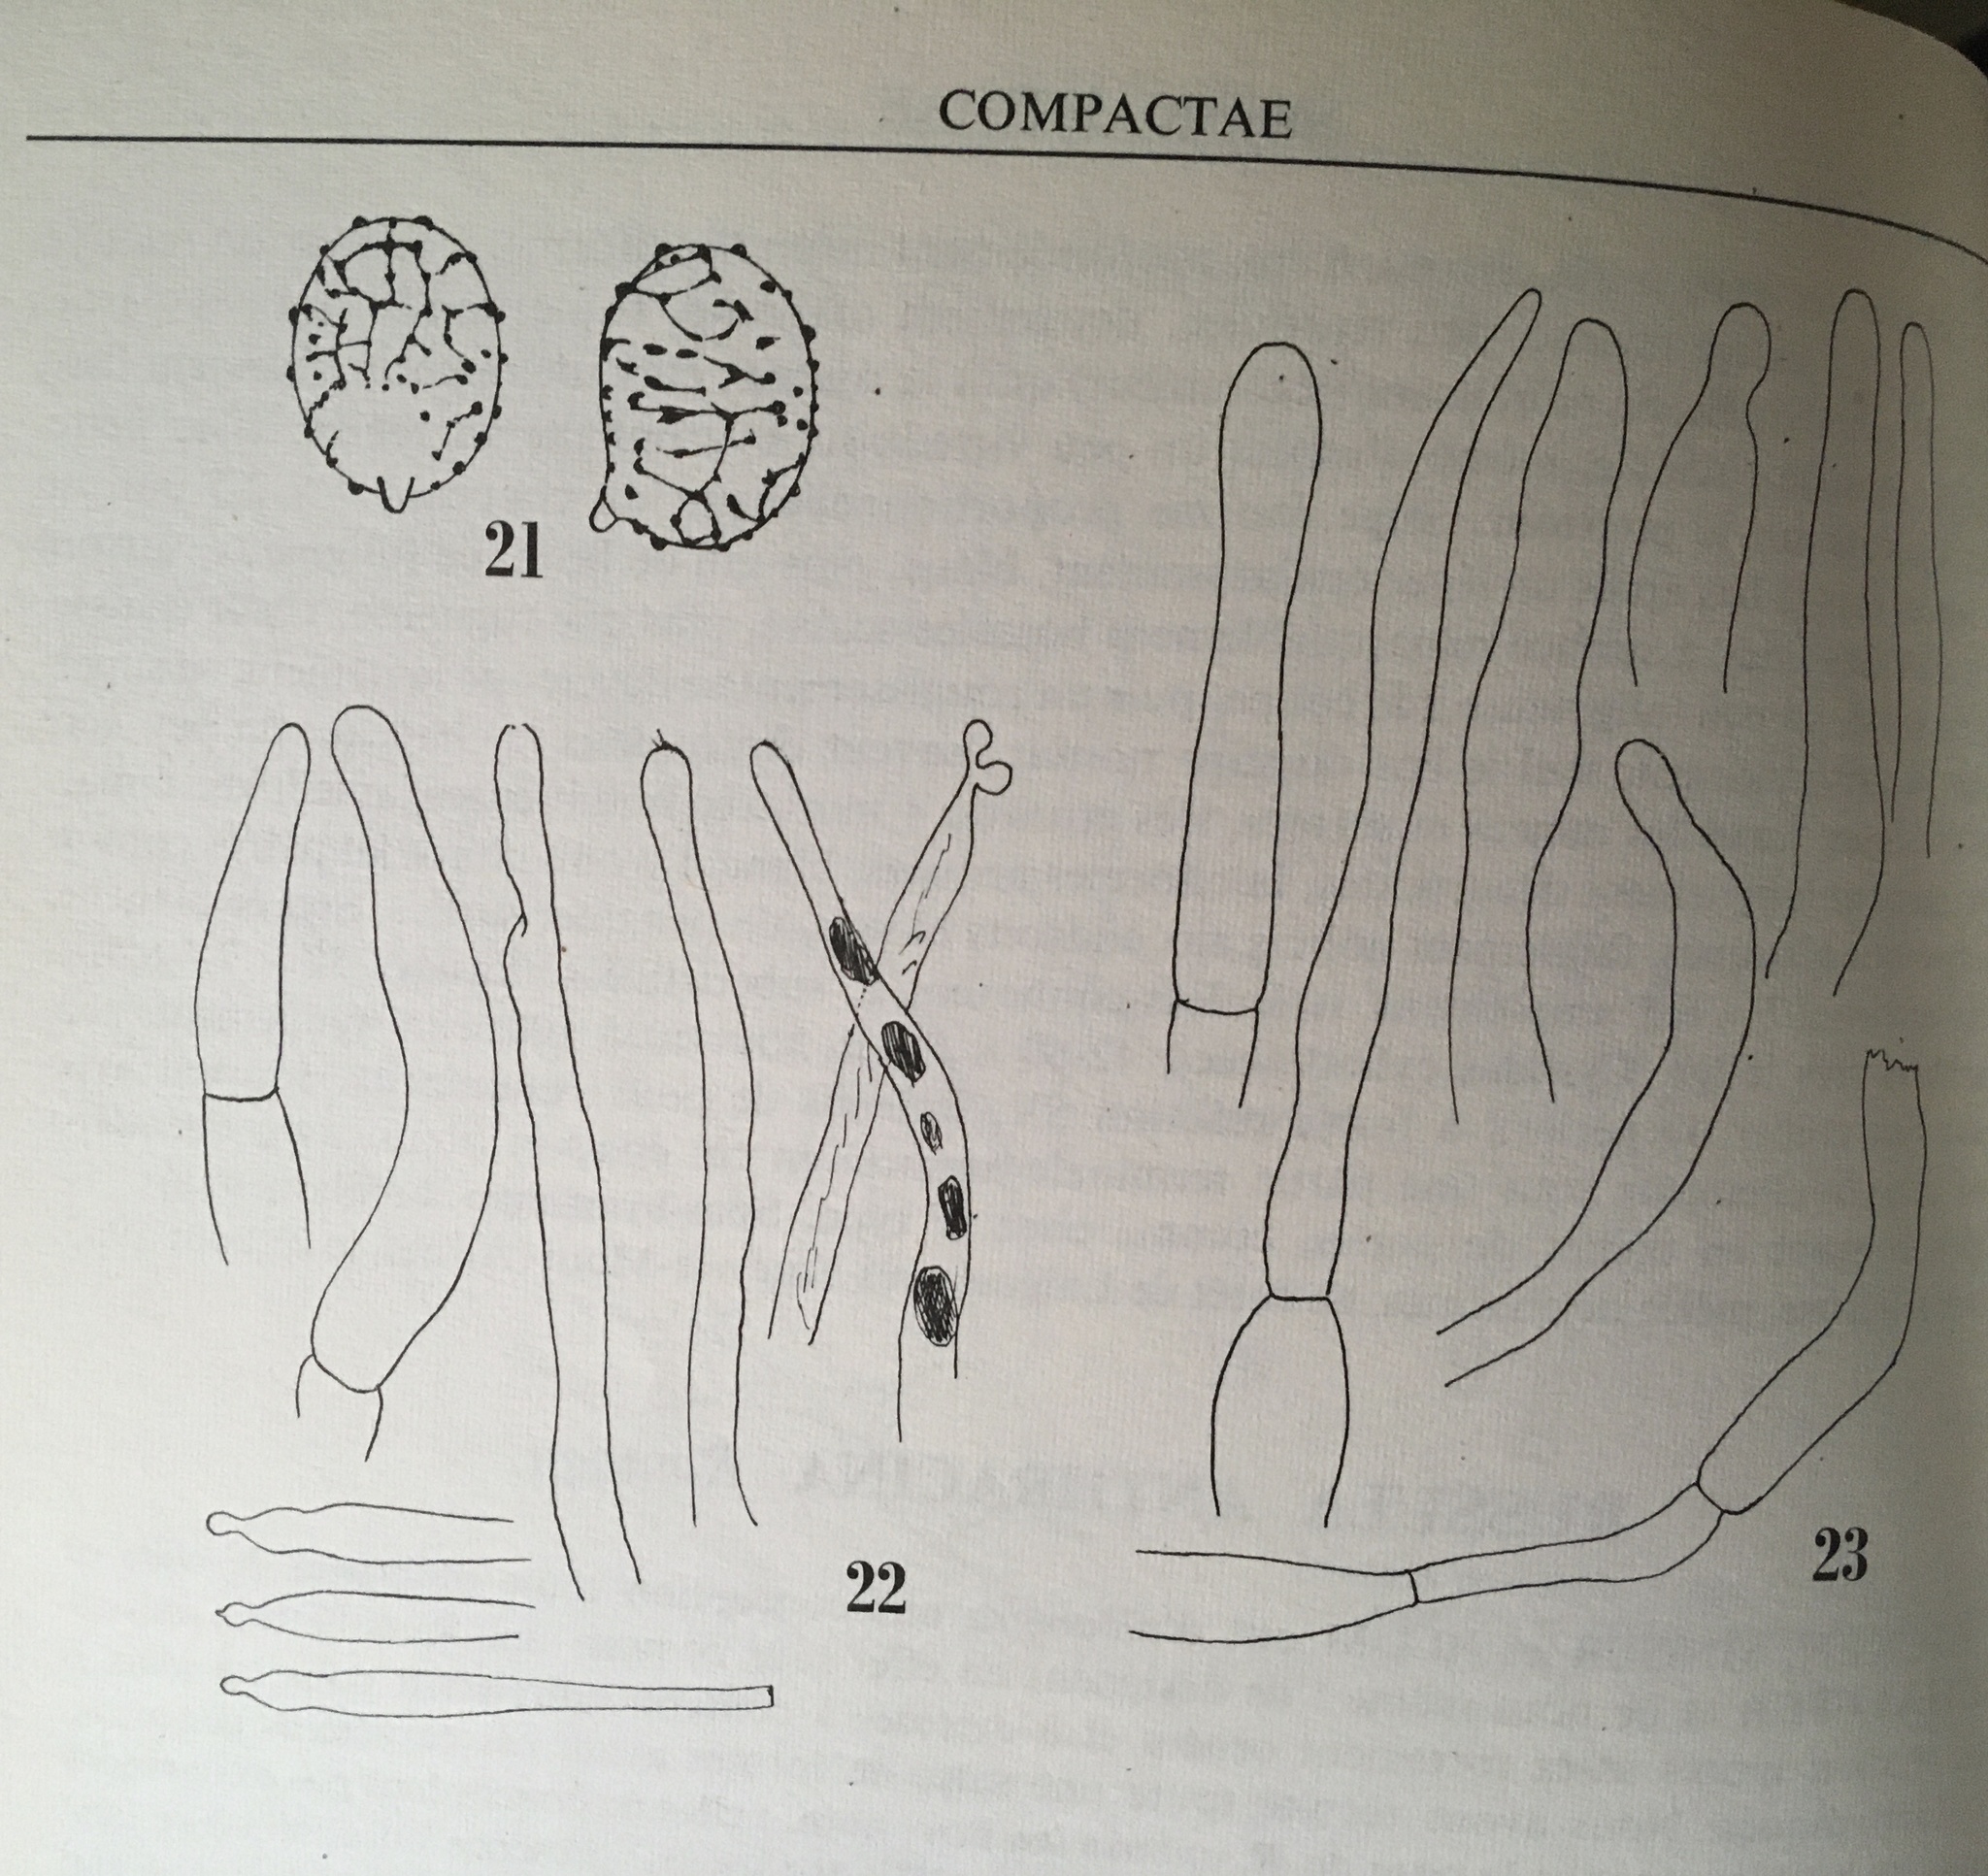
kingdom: Fungi
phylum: Basidiomycota
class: Agaricomycetes
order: Russulales
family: Russulaceae
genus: Russula
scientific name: Russula anthracina
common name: Coal brittlegill
